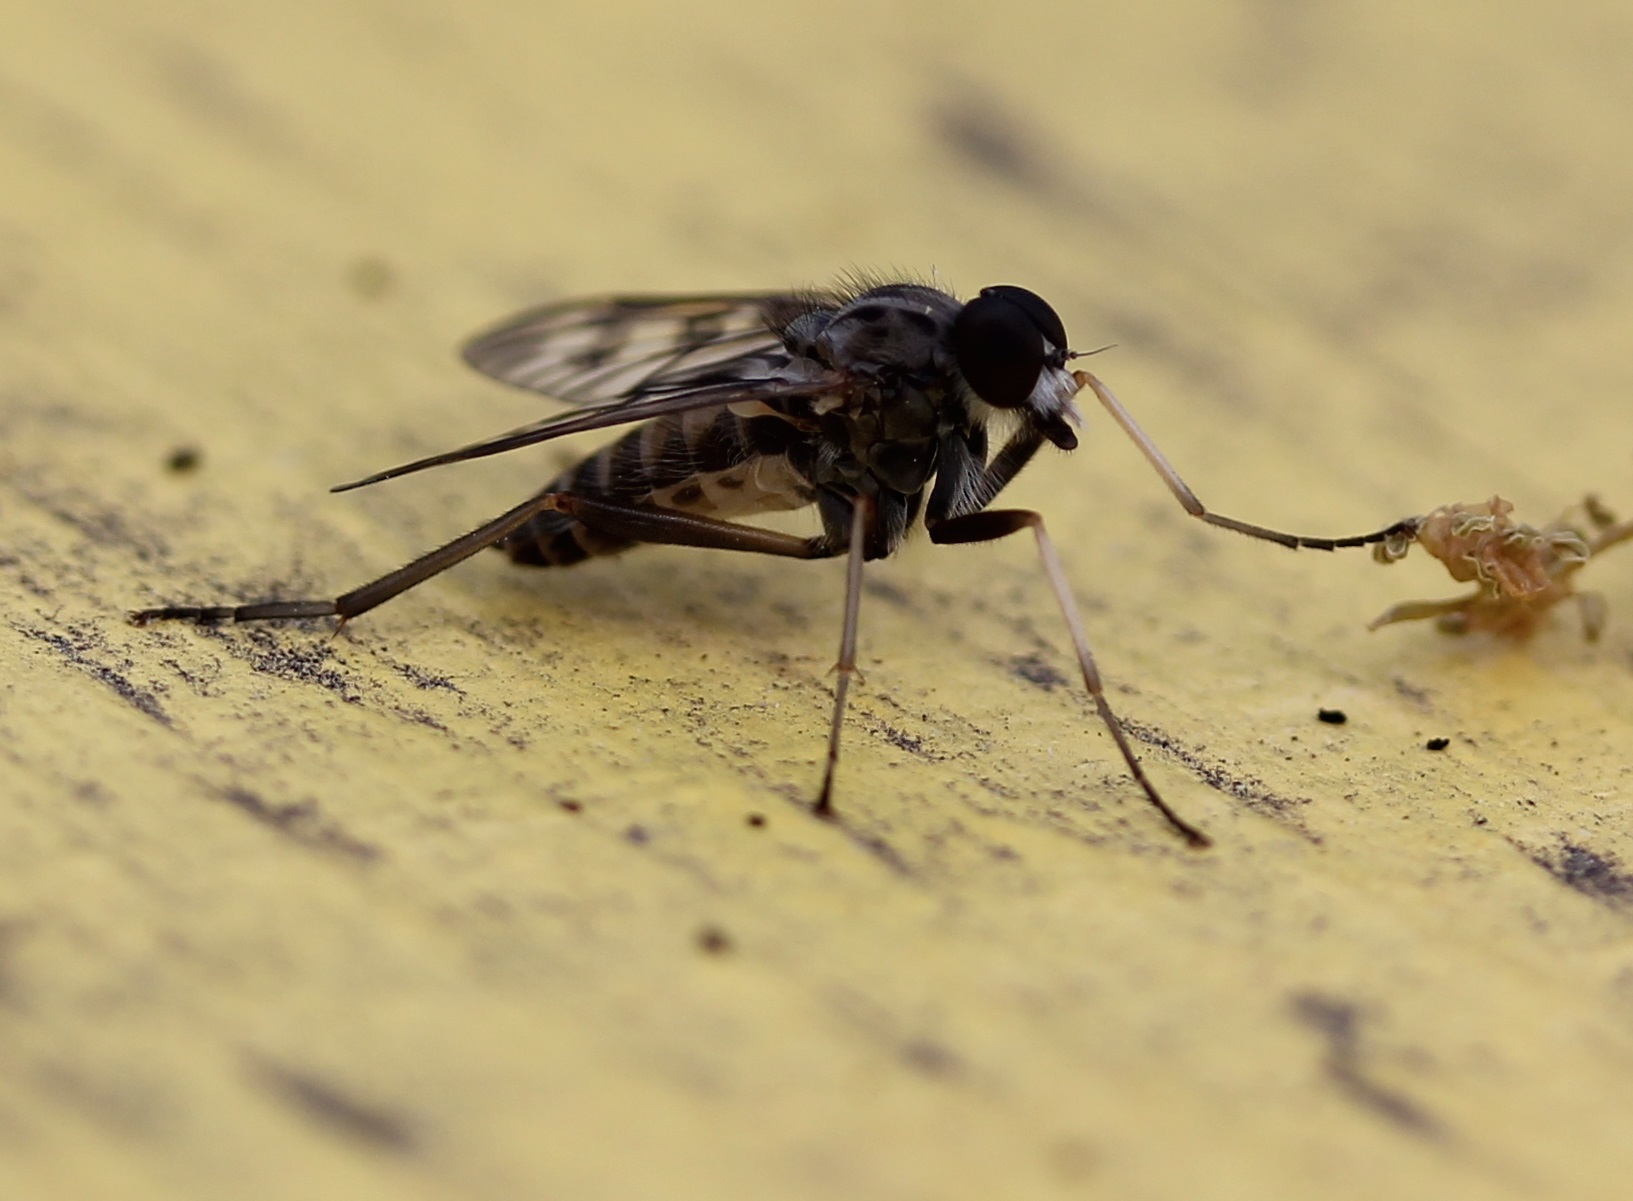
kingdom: Animalia
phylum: Arthropoda
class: Insecta
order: Diptera
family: Rhagionidae
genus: Rhagio
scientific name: Rhagio mystaceus
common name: Common snipe fly
